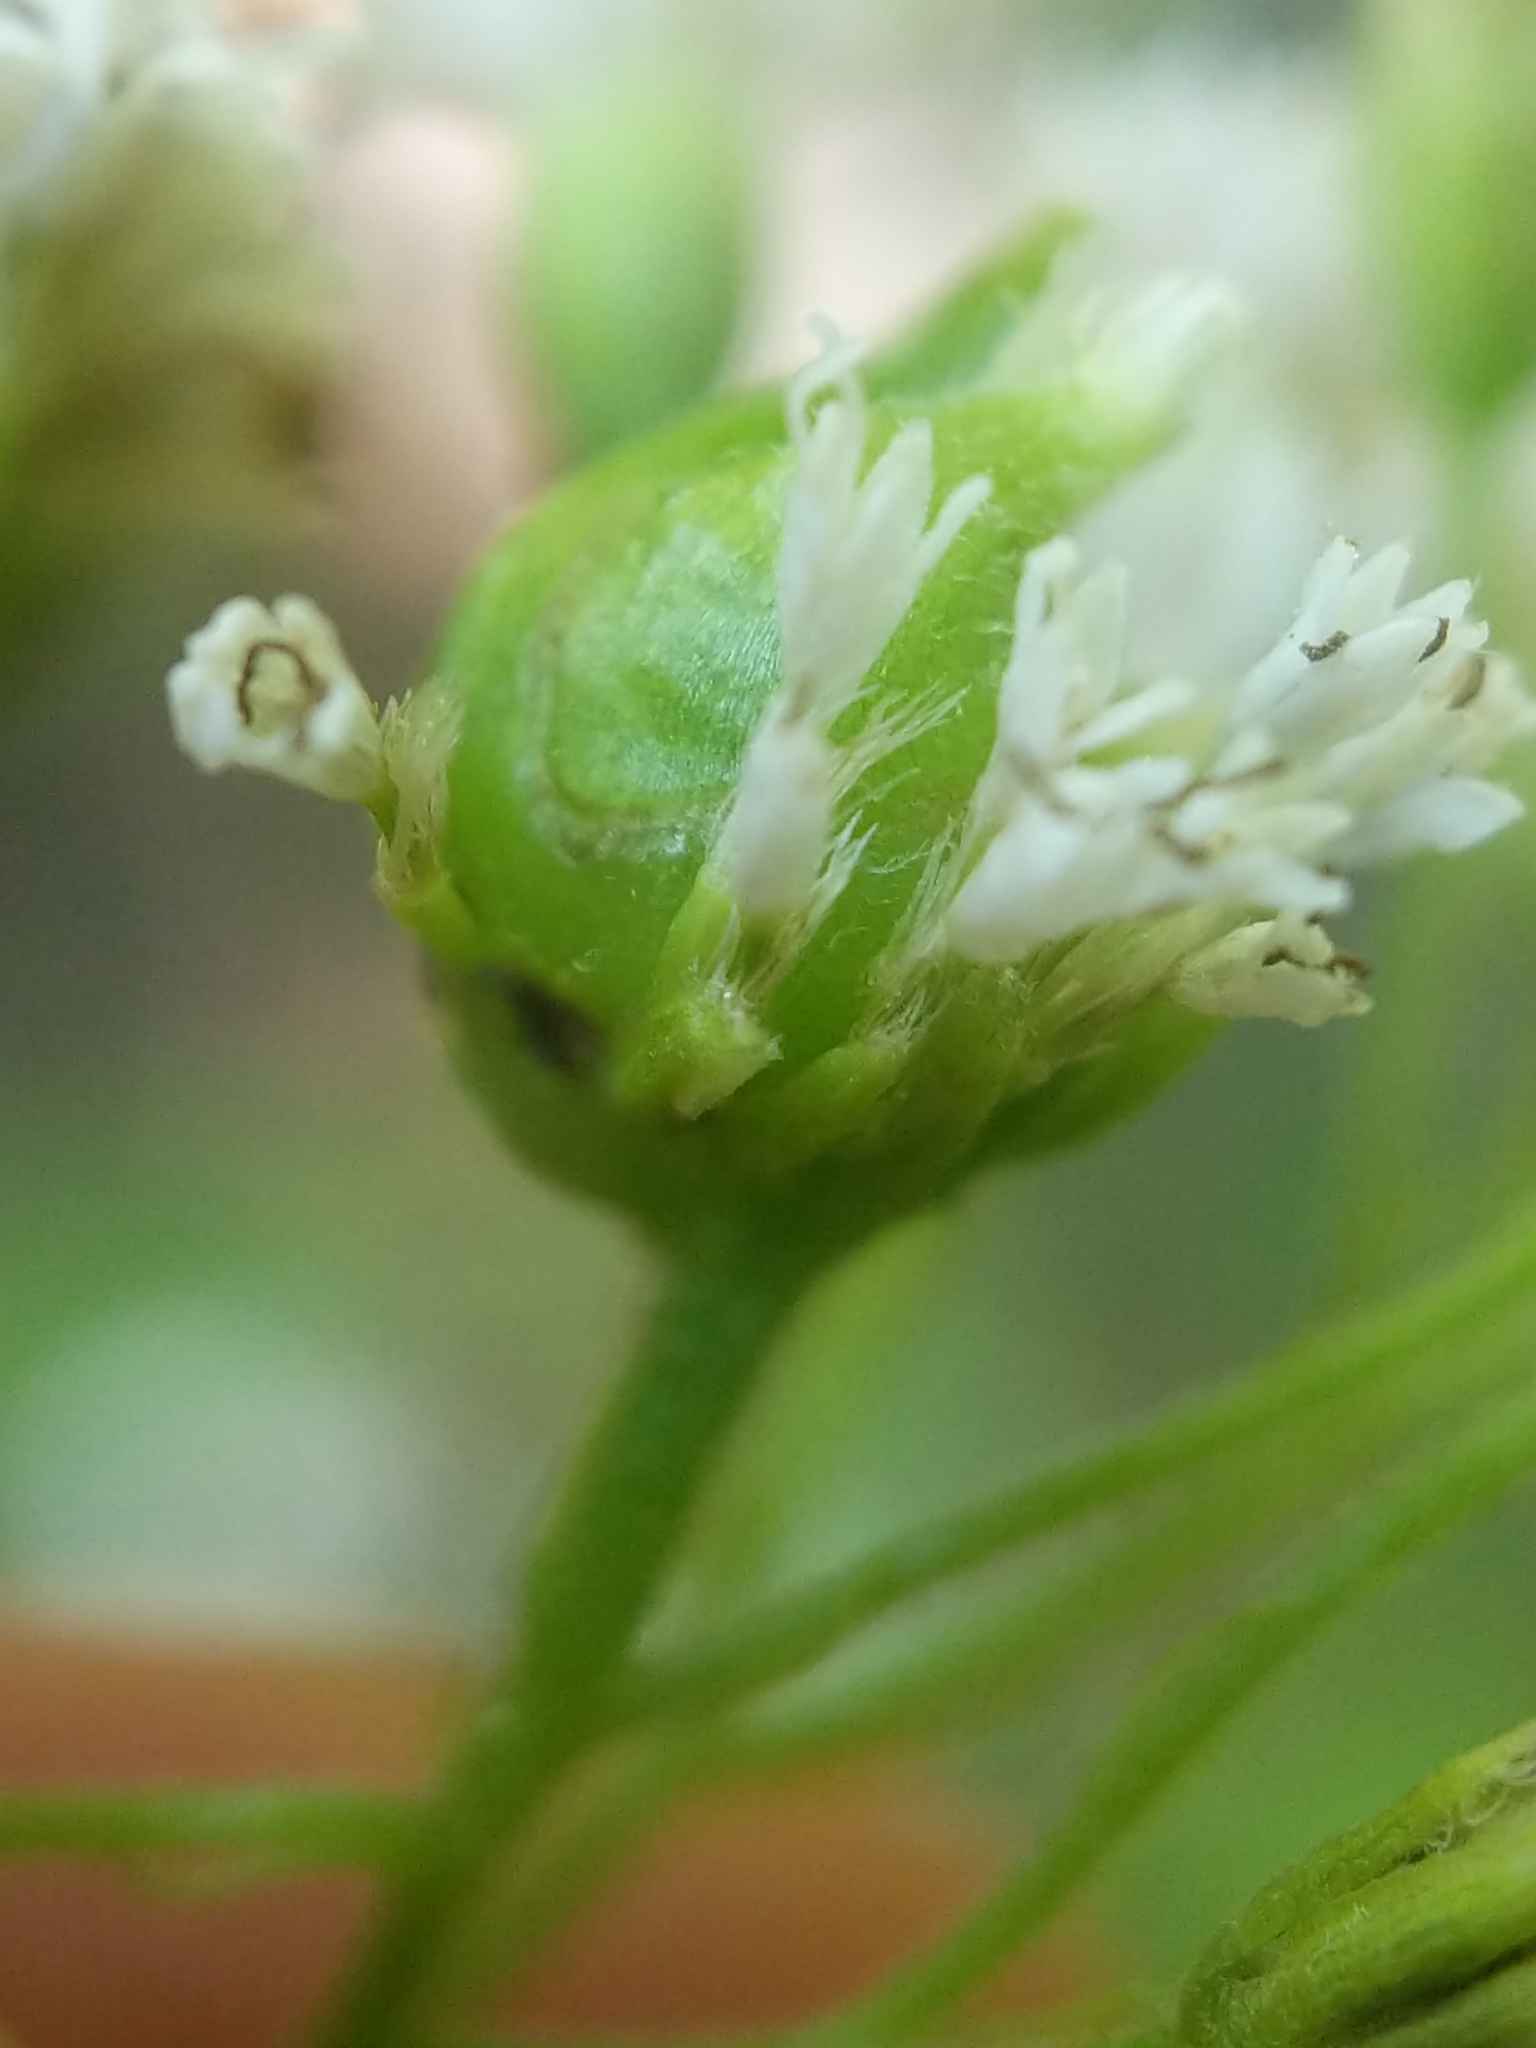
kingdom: Animalia
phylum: Arthropoda
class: Insecta
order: Diptera
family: Cecidomyiidae
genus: Schizomyia
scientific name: Schizomyia eupatoriflorae
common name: Boneset flower gall midge
